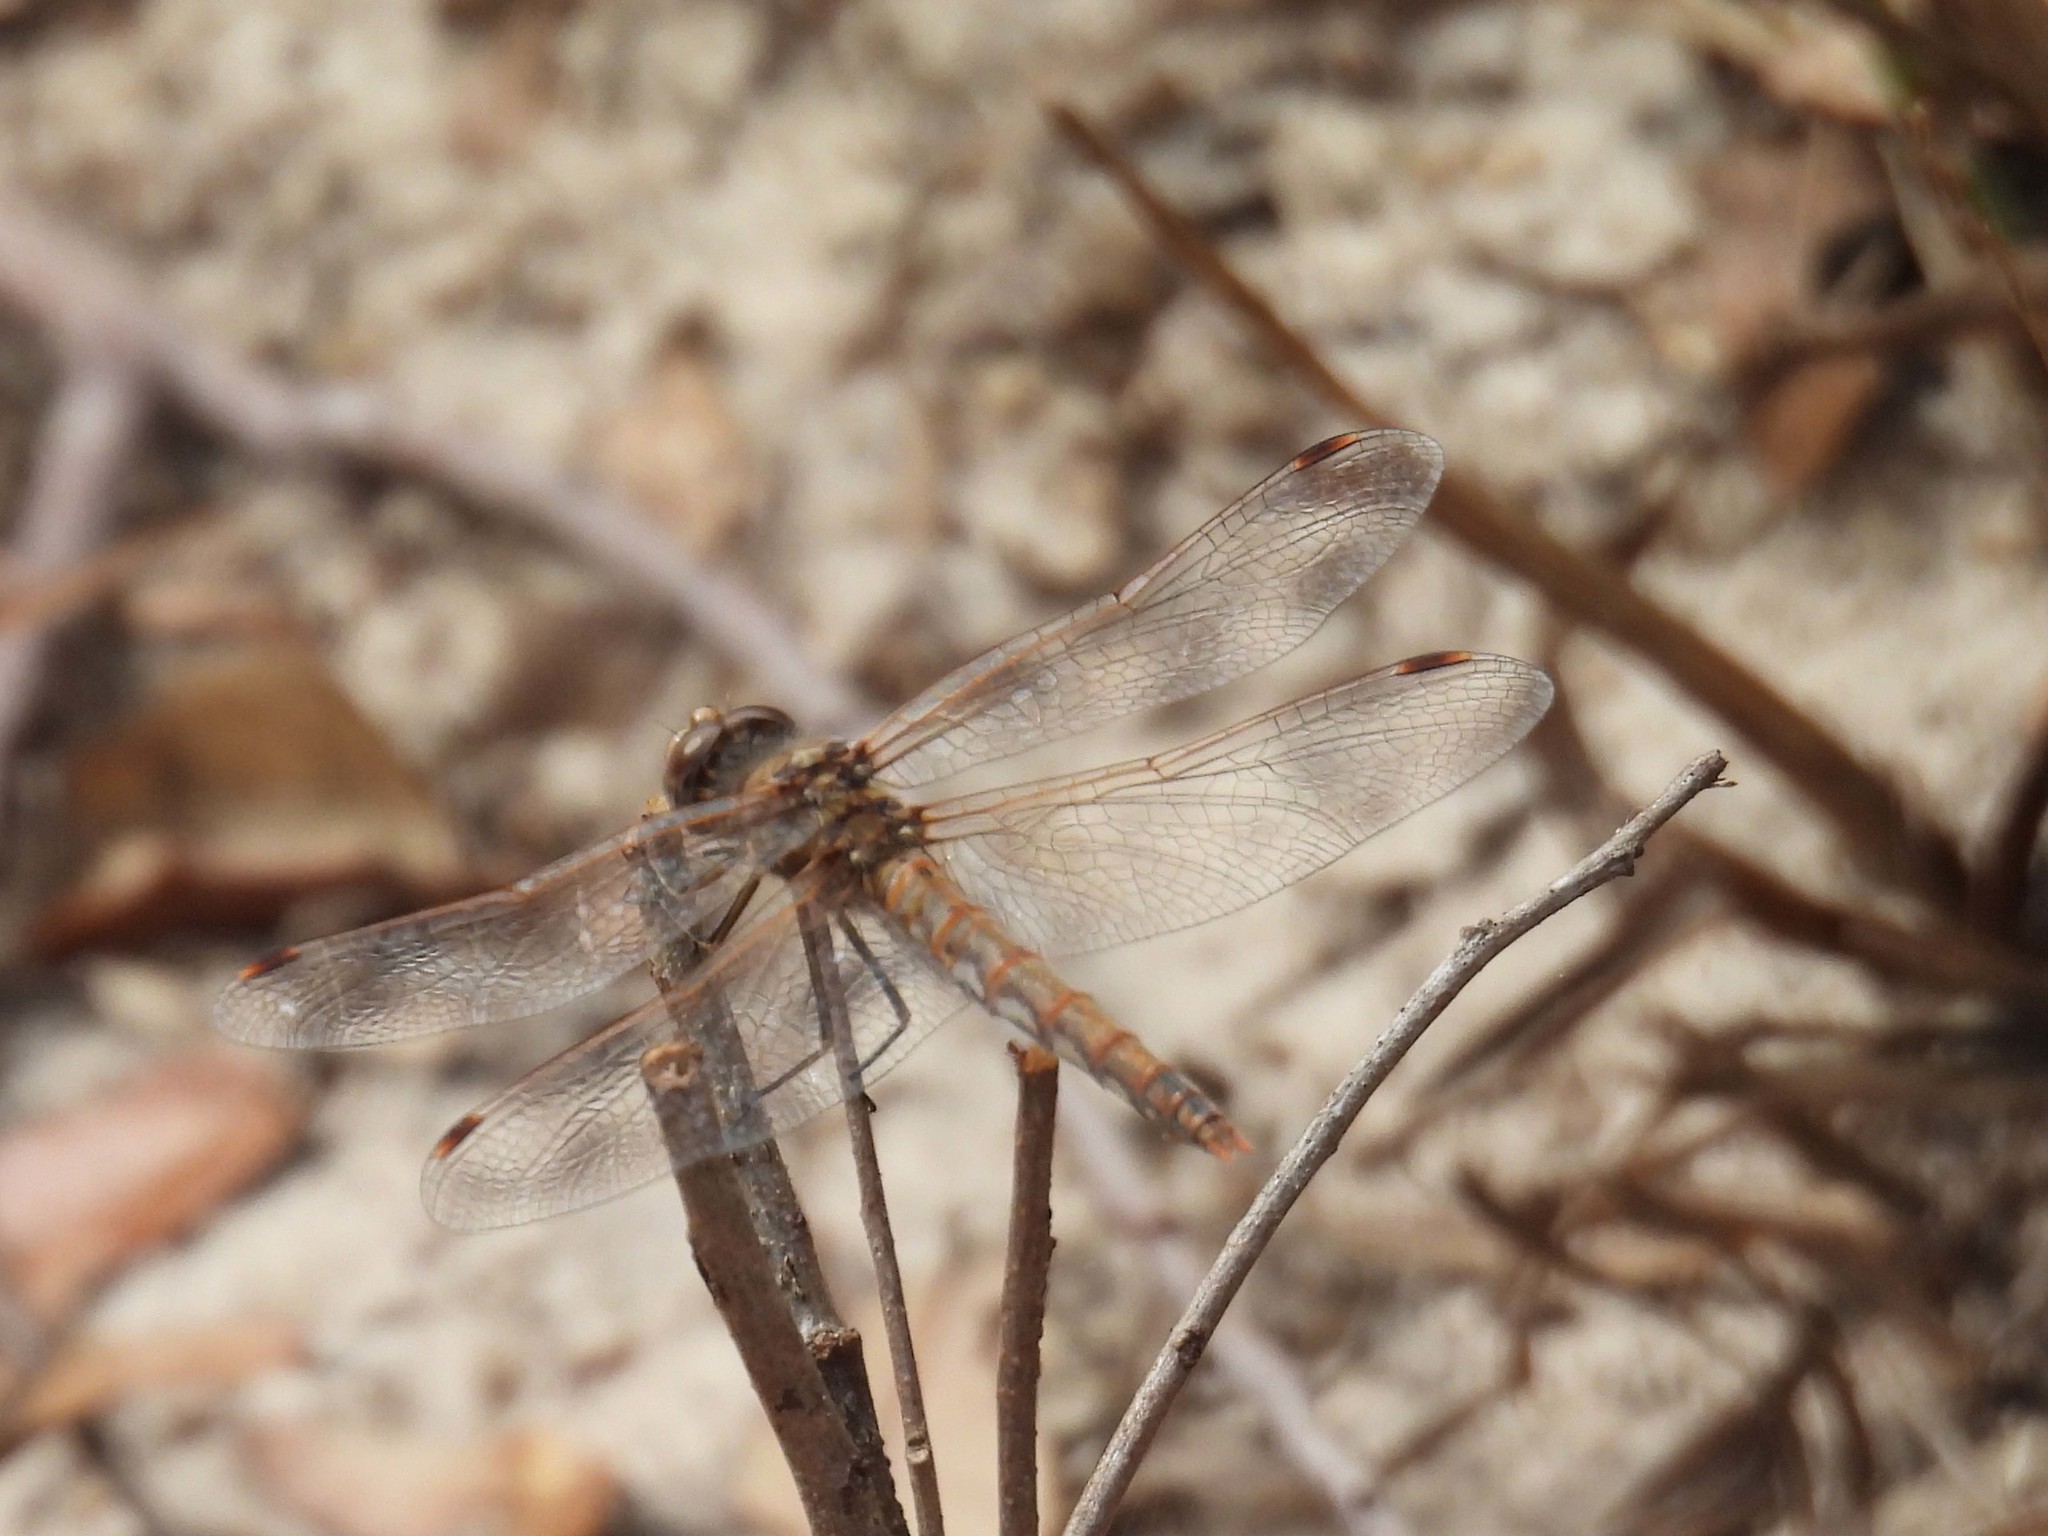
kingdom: Animalia
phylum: Arthropoda
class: Insecta
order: Odonata
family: Libellulidae
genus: Sympetrum
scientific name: Sympetrum corruptum
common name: Variegated meadowhawk
